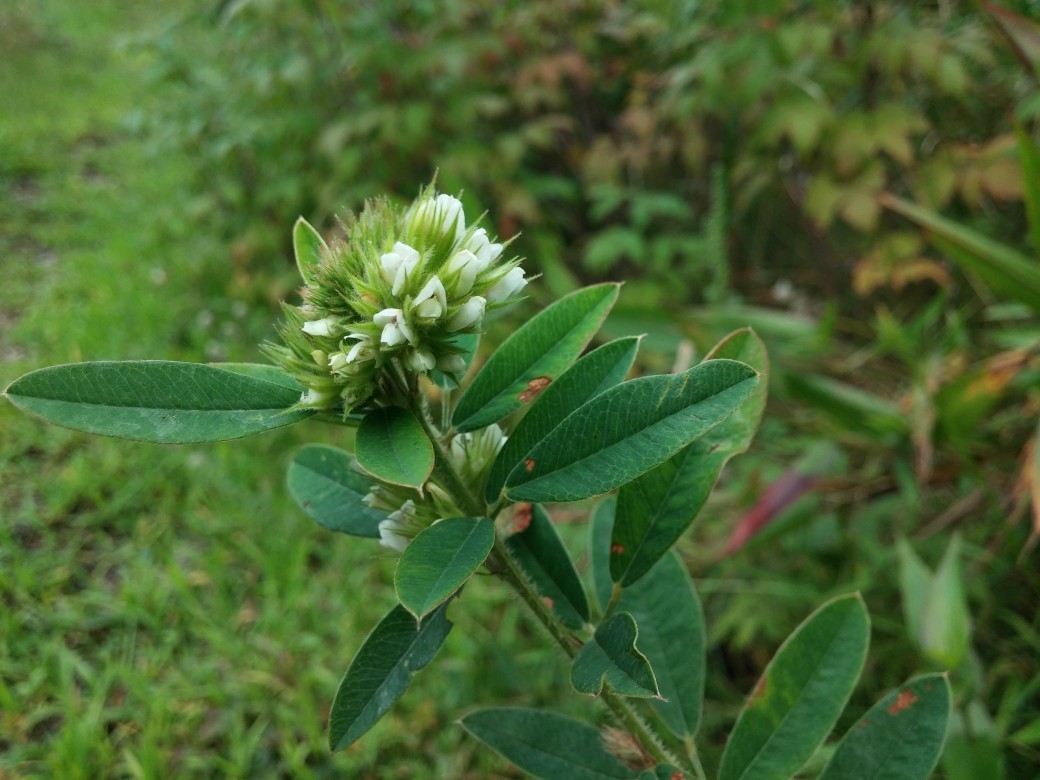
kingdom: Plantae
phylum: Tracheophyta
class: Magnoliopsida
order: Fabales
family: Fabaceae
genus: Lespedeza
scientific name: Lespedeza capitata
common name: Dusty clover
